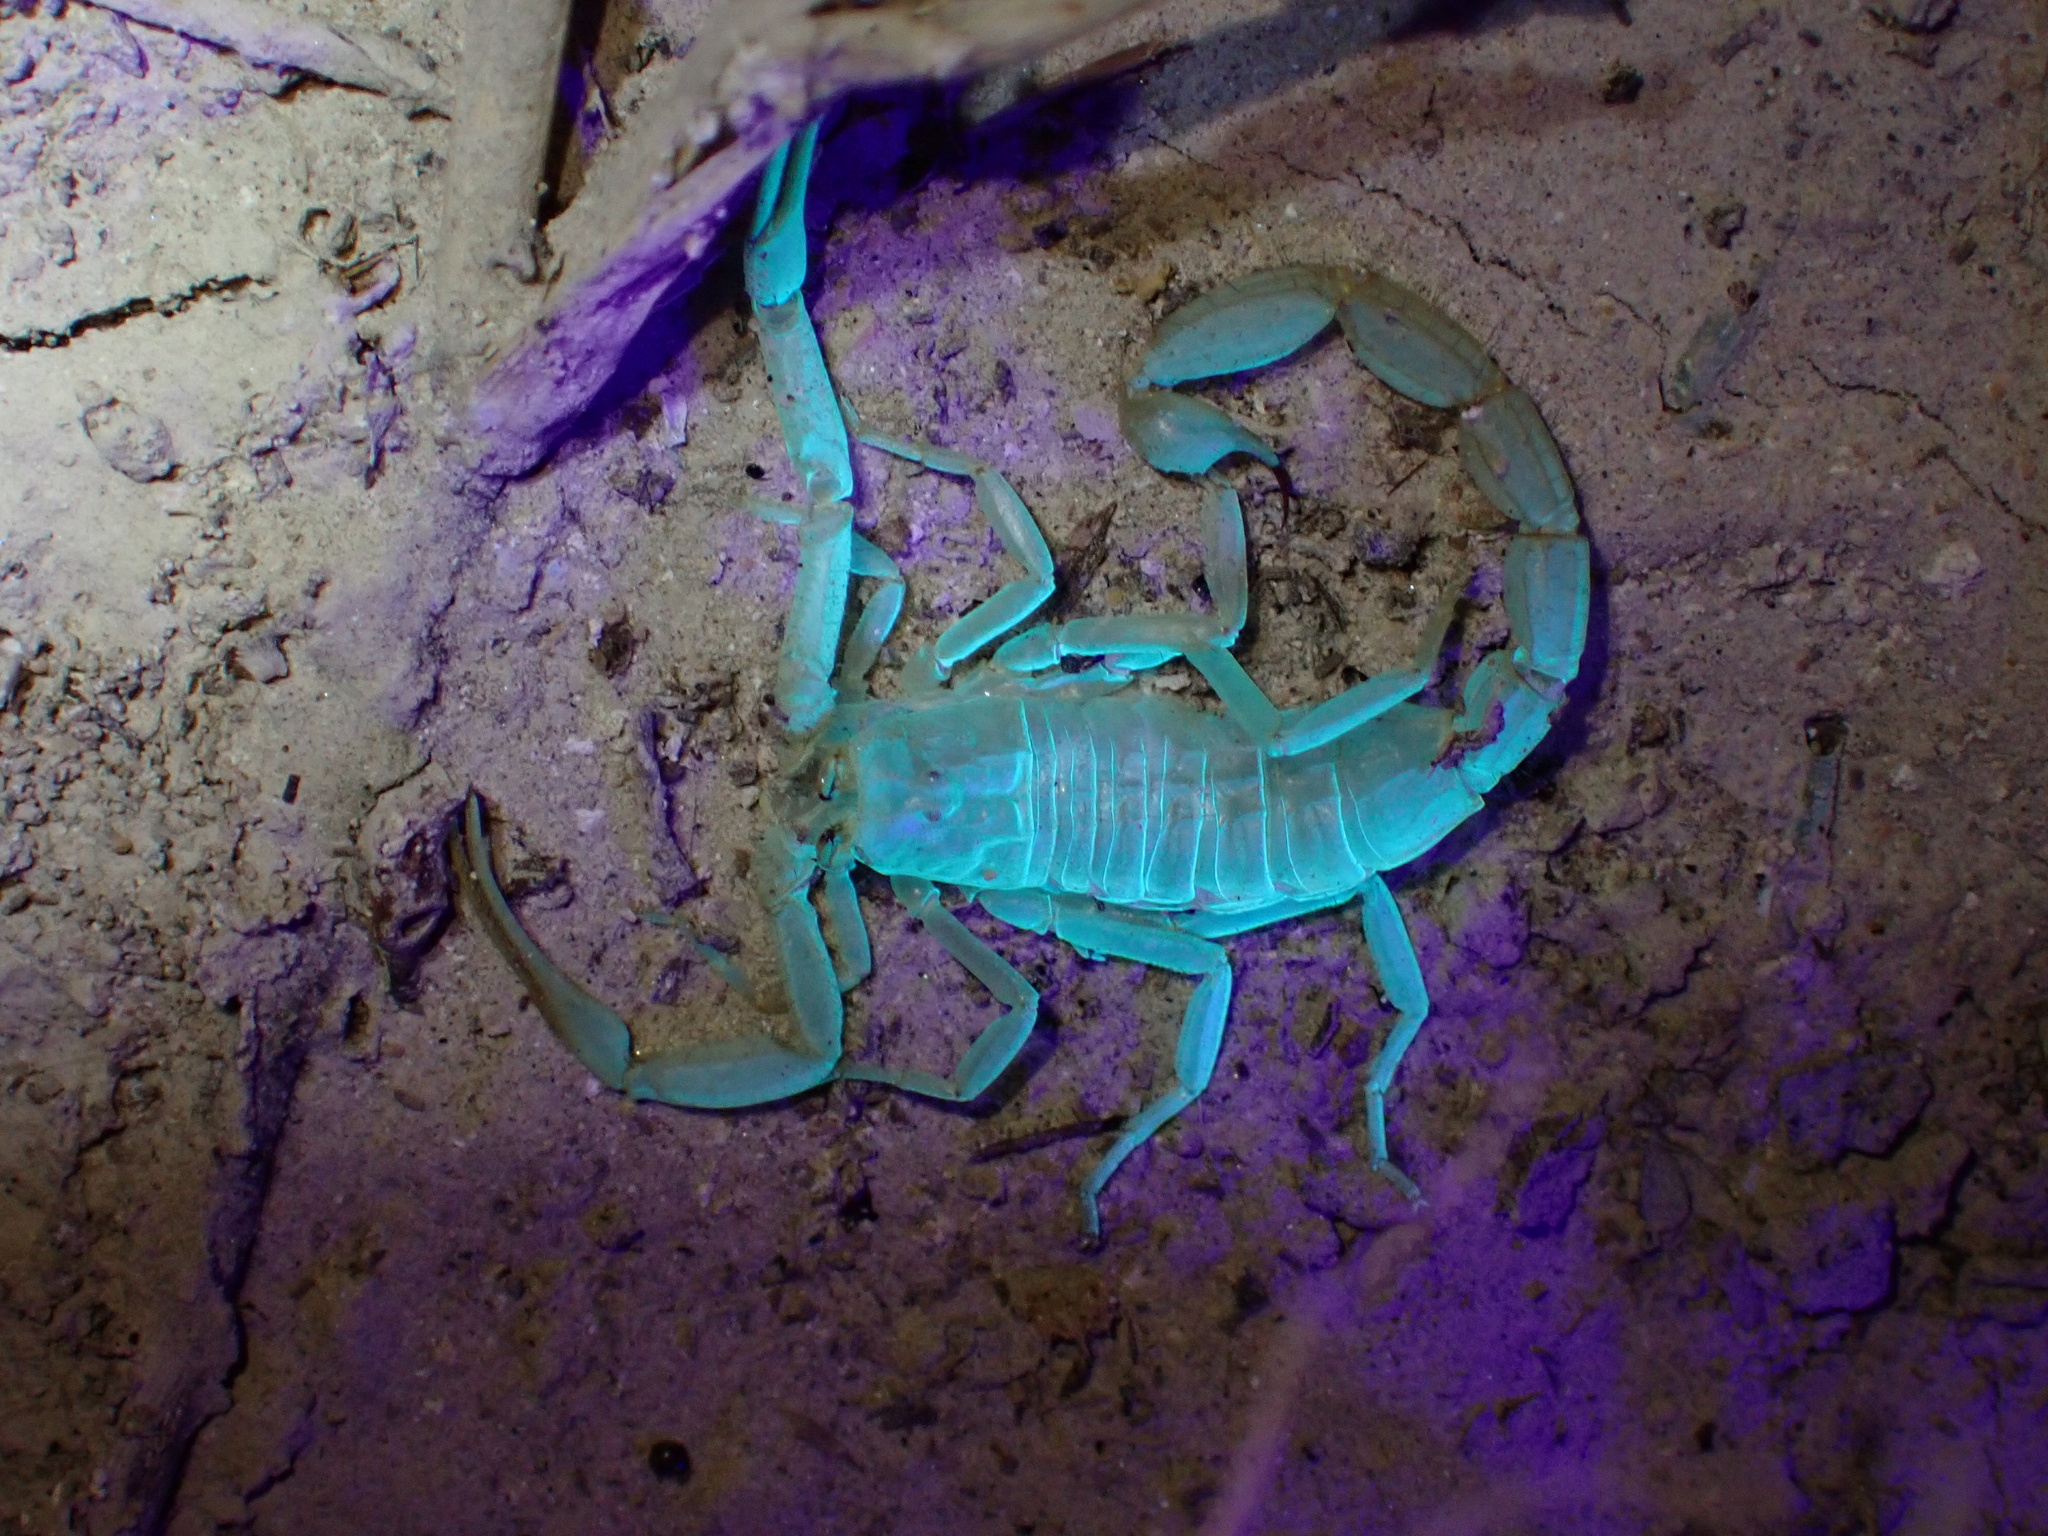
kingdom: Animalia
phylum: Arthropoda
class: Arachnida
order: Scorpiones
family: Buthidae
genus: Hottentotta
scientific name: Hottentotta jayakari
